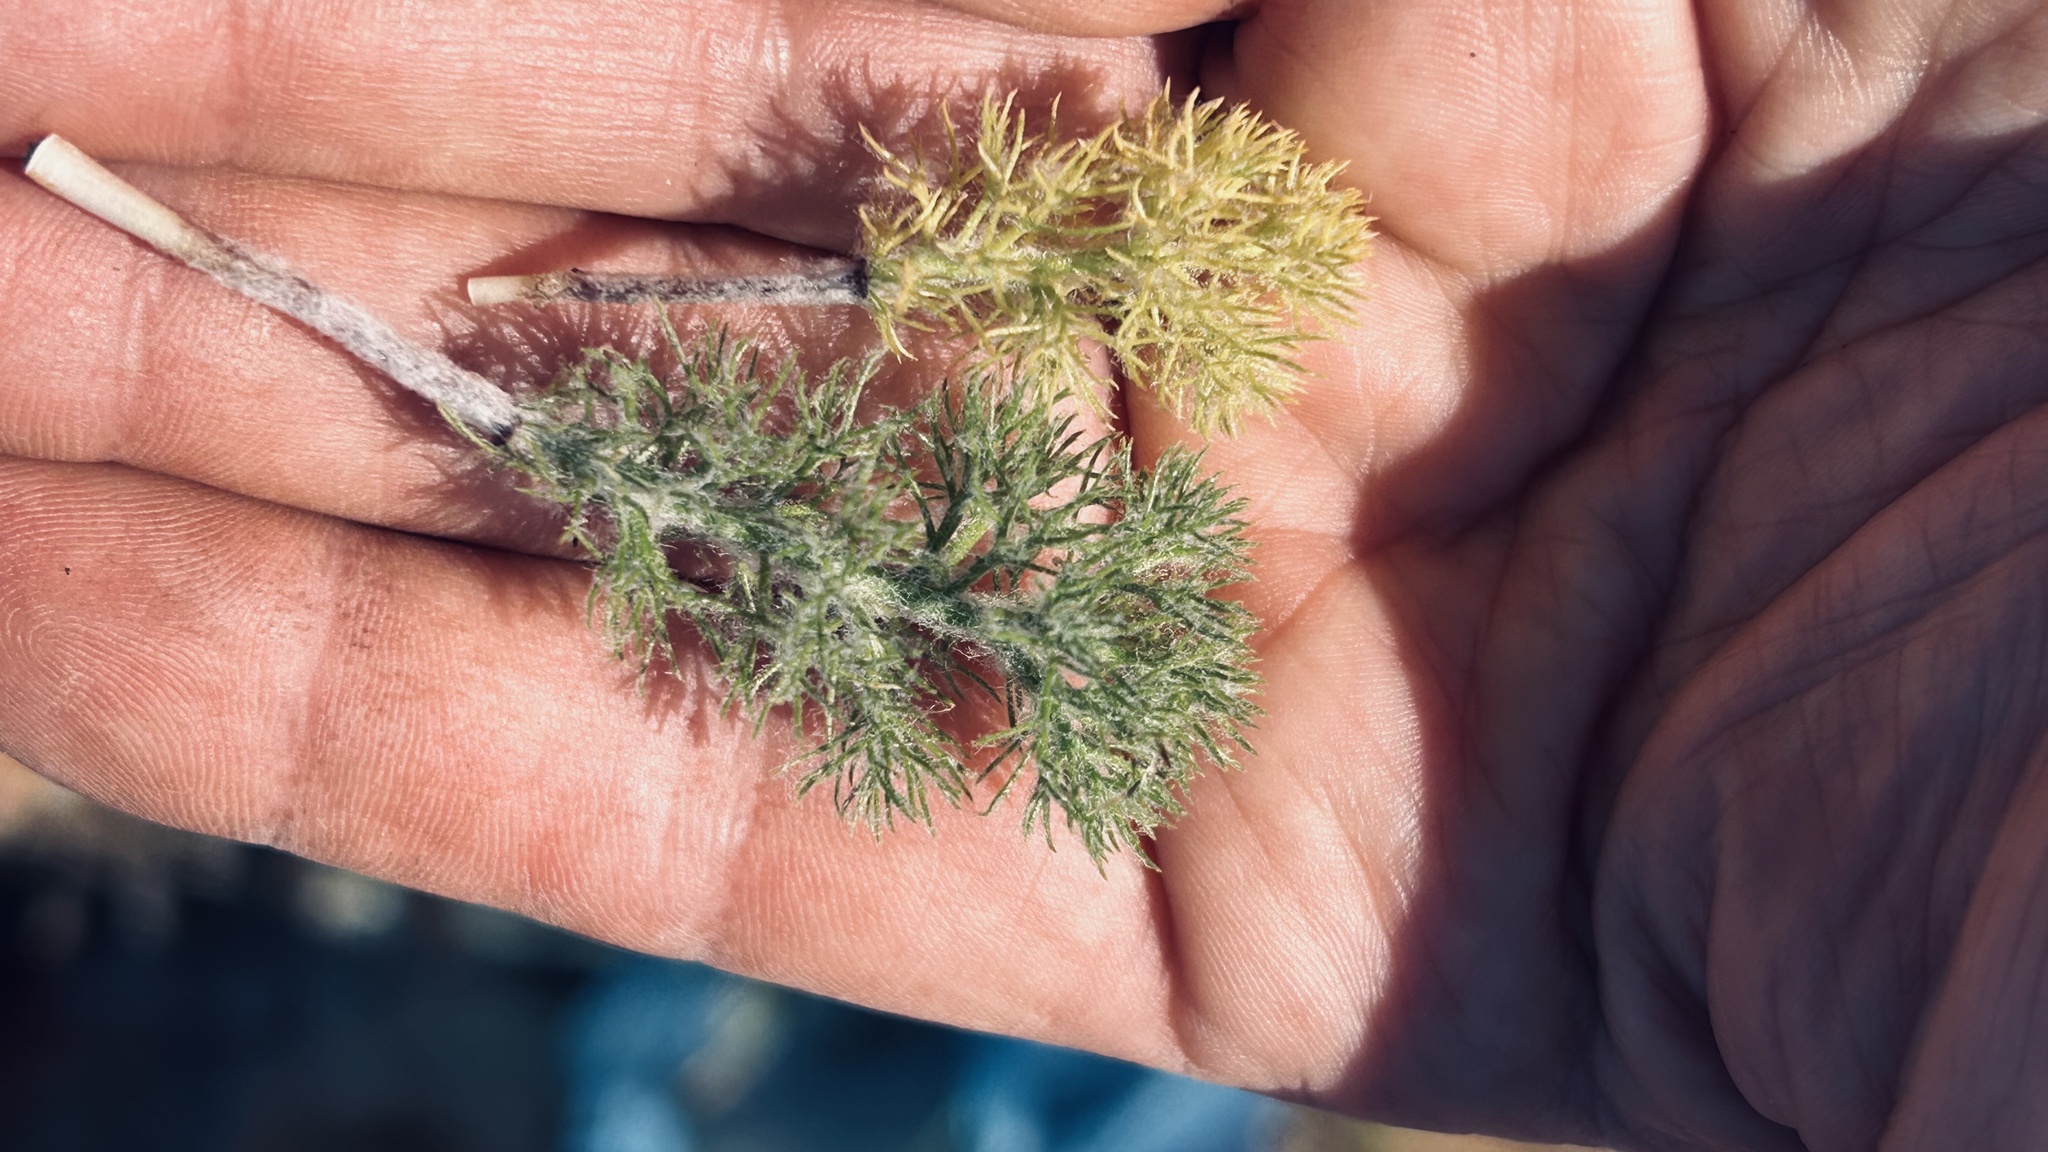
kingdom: Plantae
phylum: Tracheophyta
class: Liliopsida
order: Asparagales
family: Asparagaceae
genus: Eriospermum
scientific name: Eriospermum paradoxum
